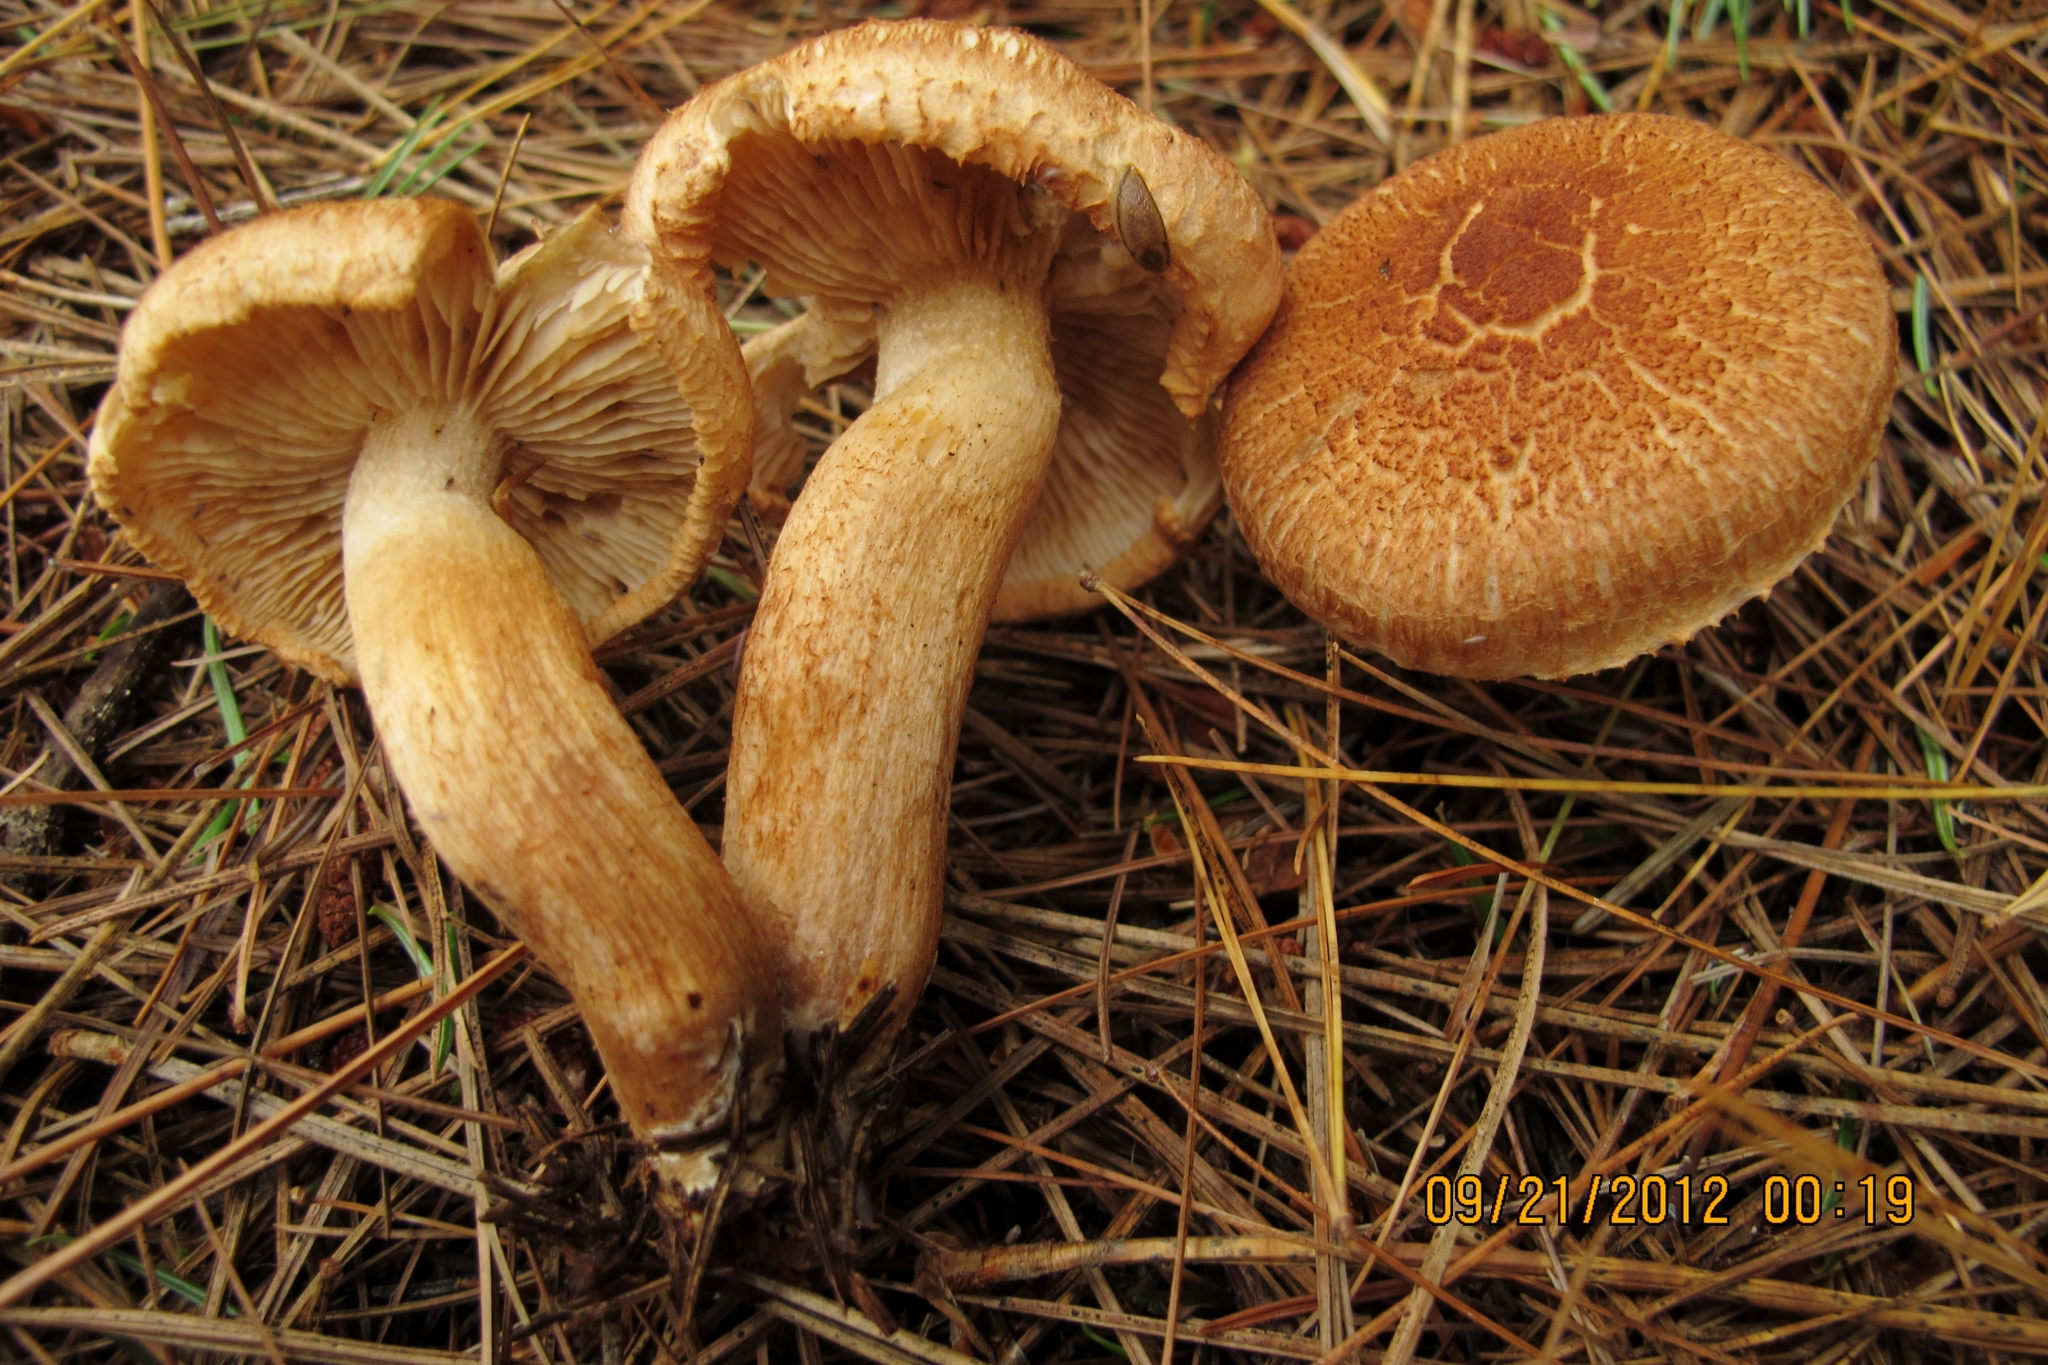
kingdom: Fungi
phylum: Basidiomycota
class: Agaricomycetes
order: Agaricales
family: Tricholomataceae
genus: Tricholoma
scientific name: Tricholoma vaccinum
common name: Scaly knight
